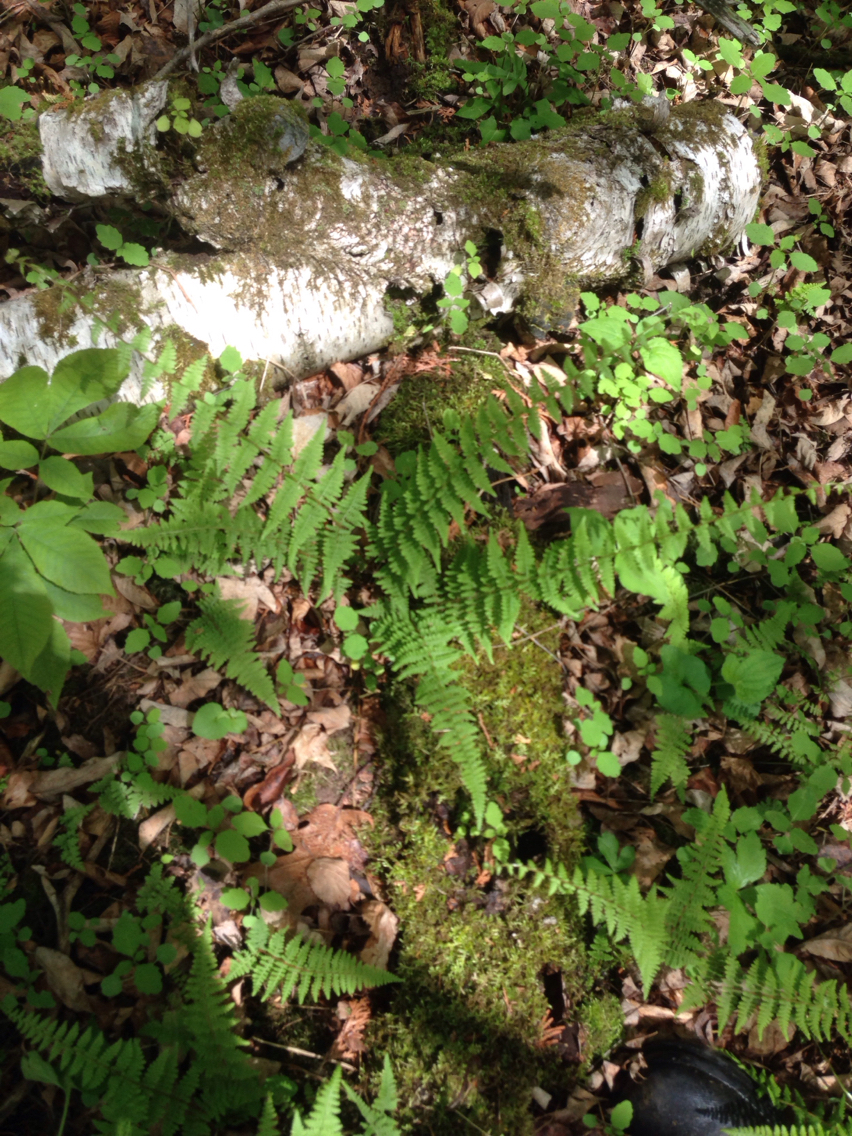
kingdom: Plantae
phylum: Tracheophyta
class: Polypodiopsida
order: Polypodiales
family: Cystopteridaceae
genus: Cystopteris
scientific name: Cystopteris bulbifera
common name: Bulblet bladder fern
